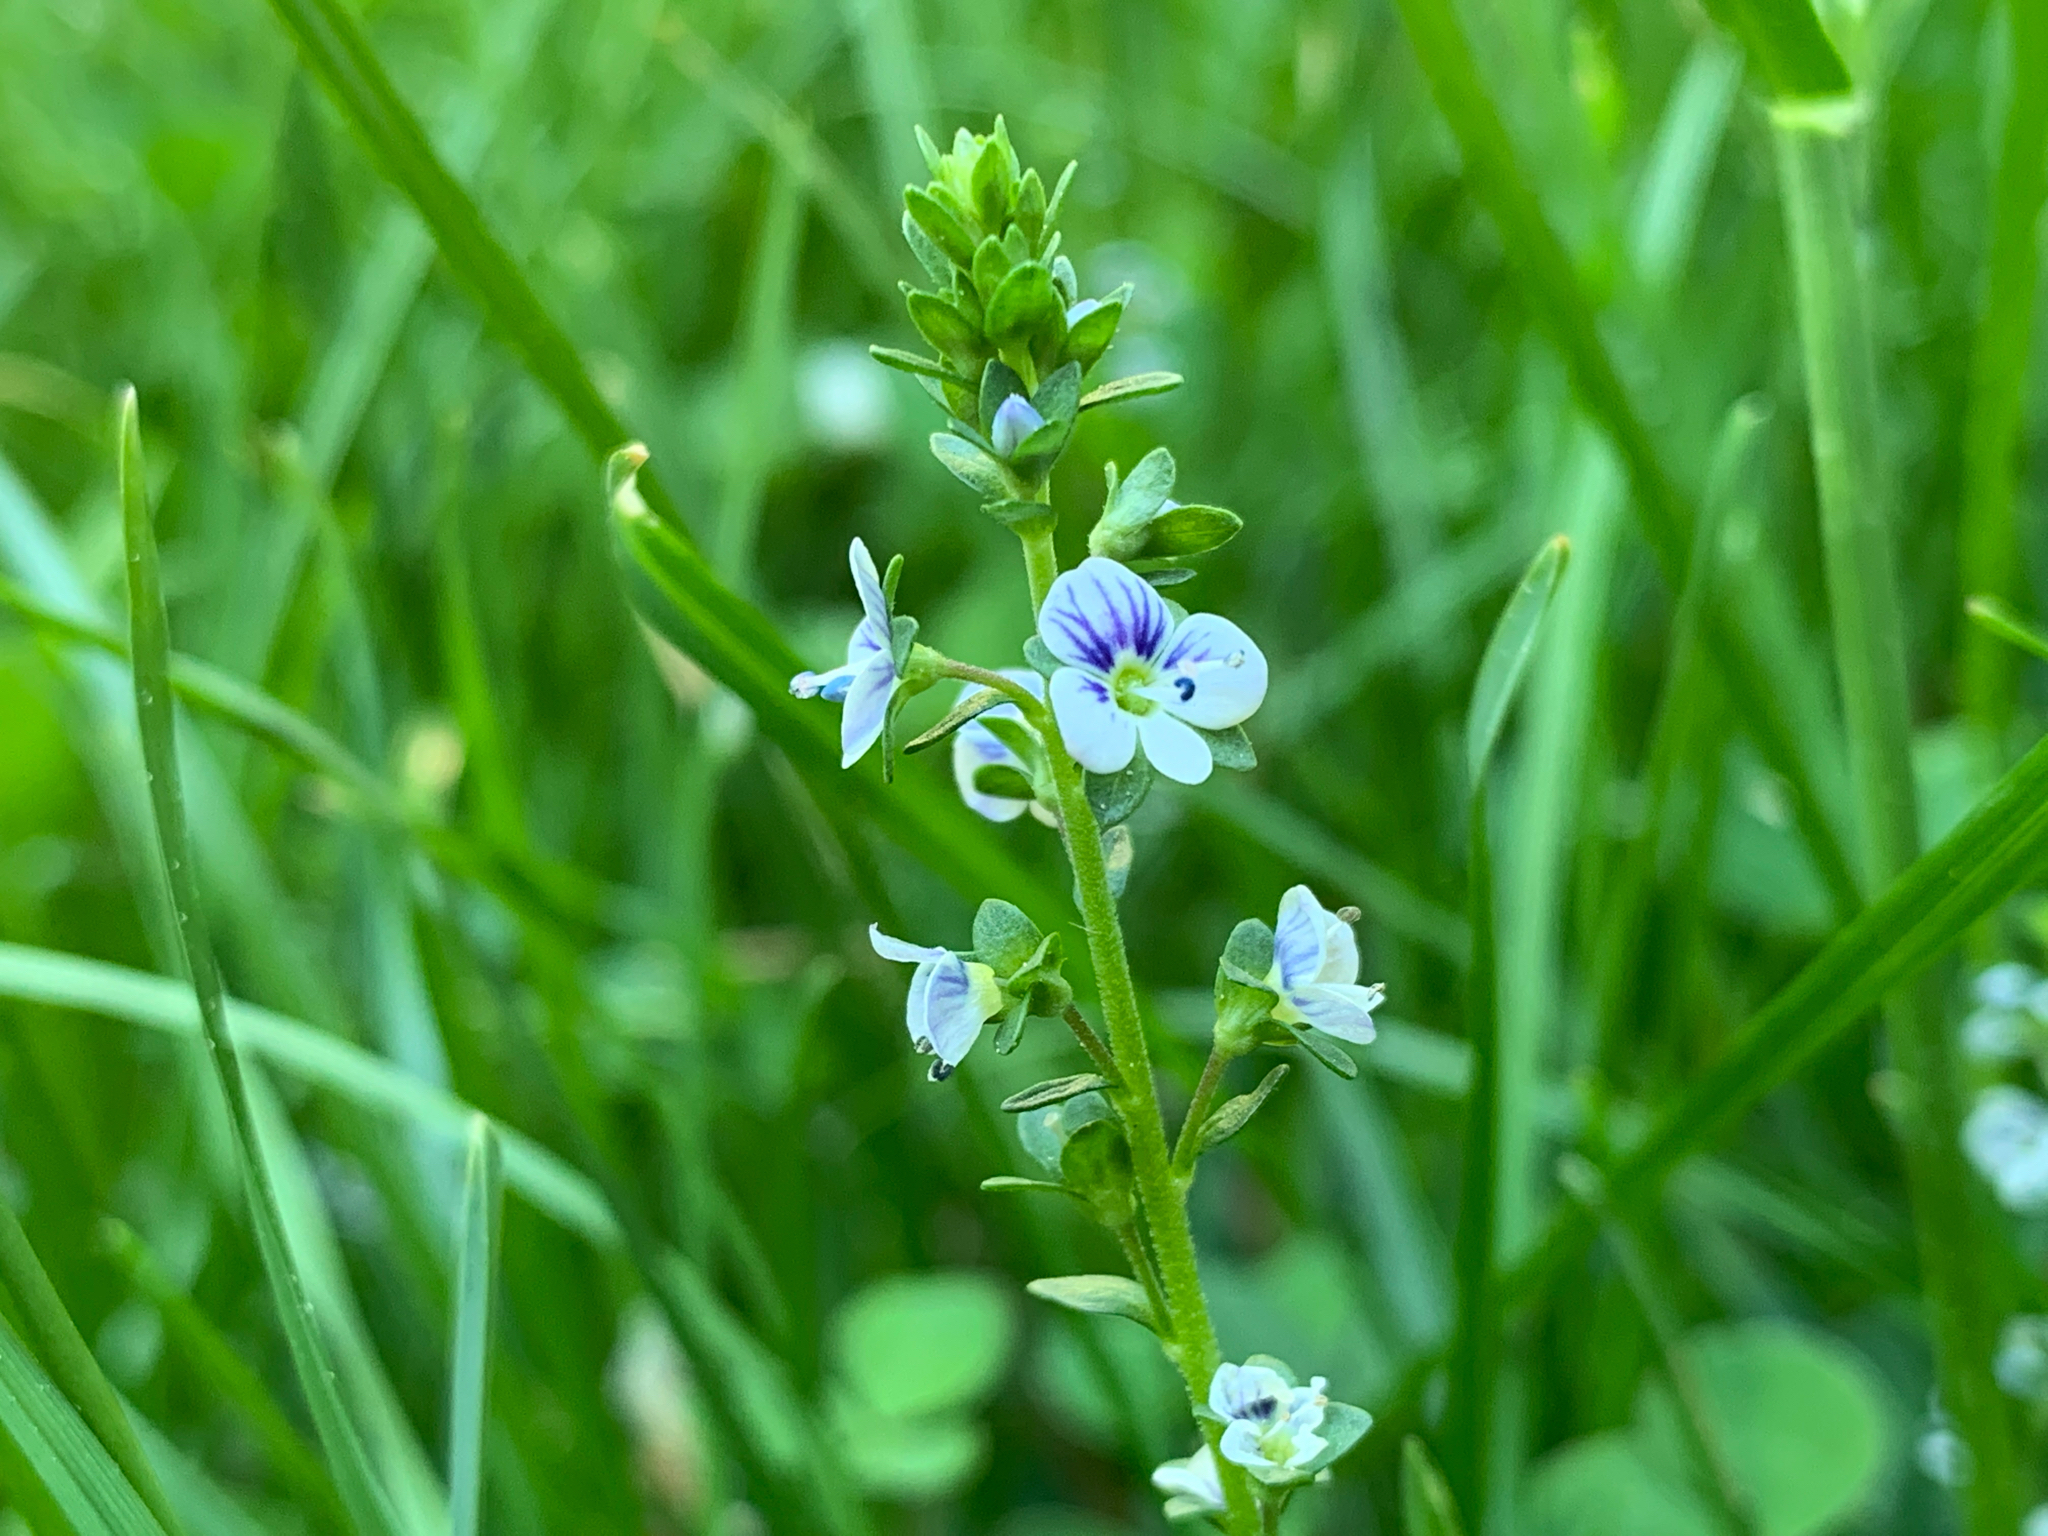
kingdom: Plantae
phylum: Tracheophyta
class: Magnoliopsida
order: Lamiales
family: Plantaginaceae
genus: Veronica
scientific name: Veronica serpyllifolia
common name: Thyme-leaved speedwell
